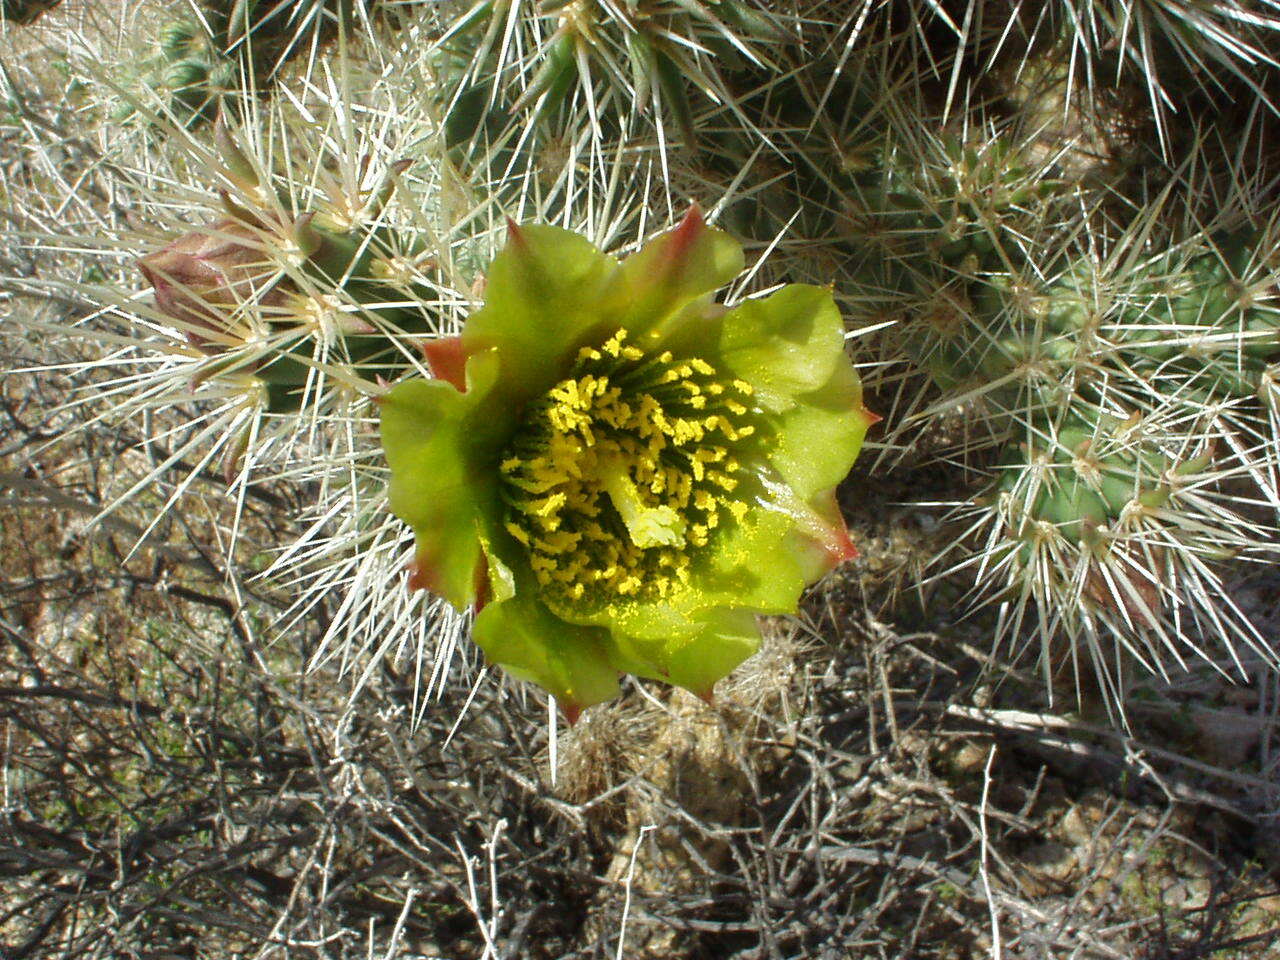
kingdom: Plantae
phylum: Tracheophyta
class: Magnoliopsida
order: Caryophyllales
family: Cactaceae
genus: Cylindropuntia
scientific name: Cylindropuntia echinocarpa
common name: Ground cholla
